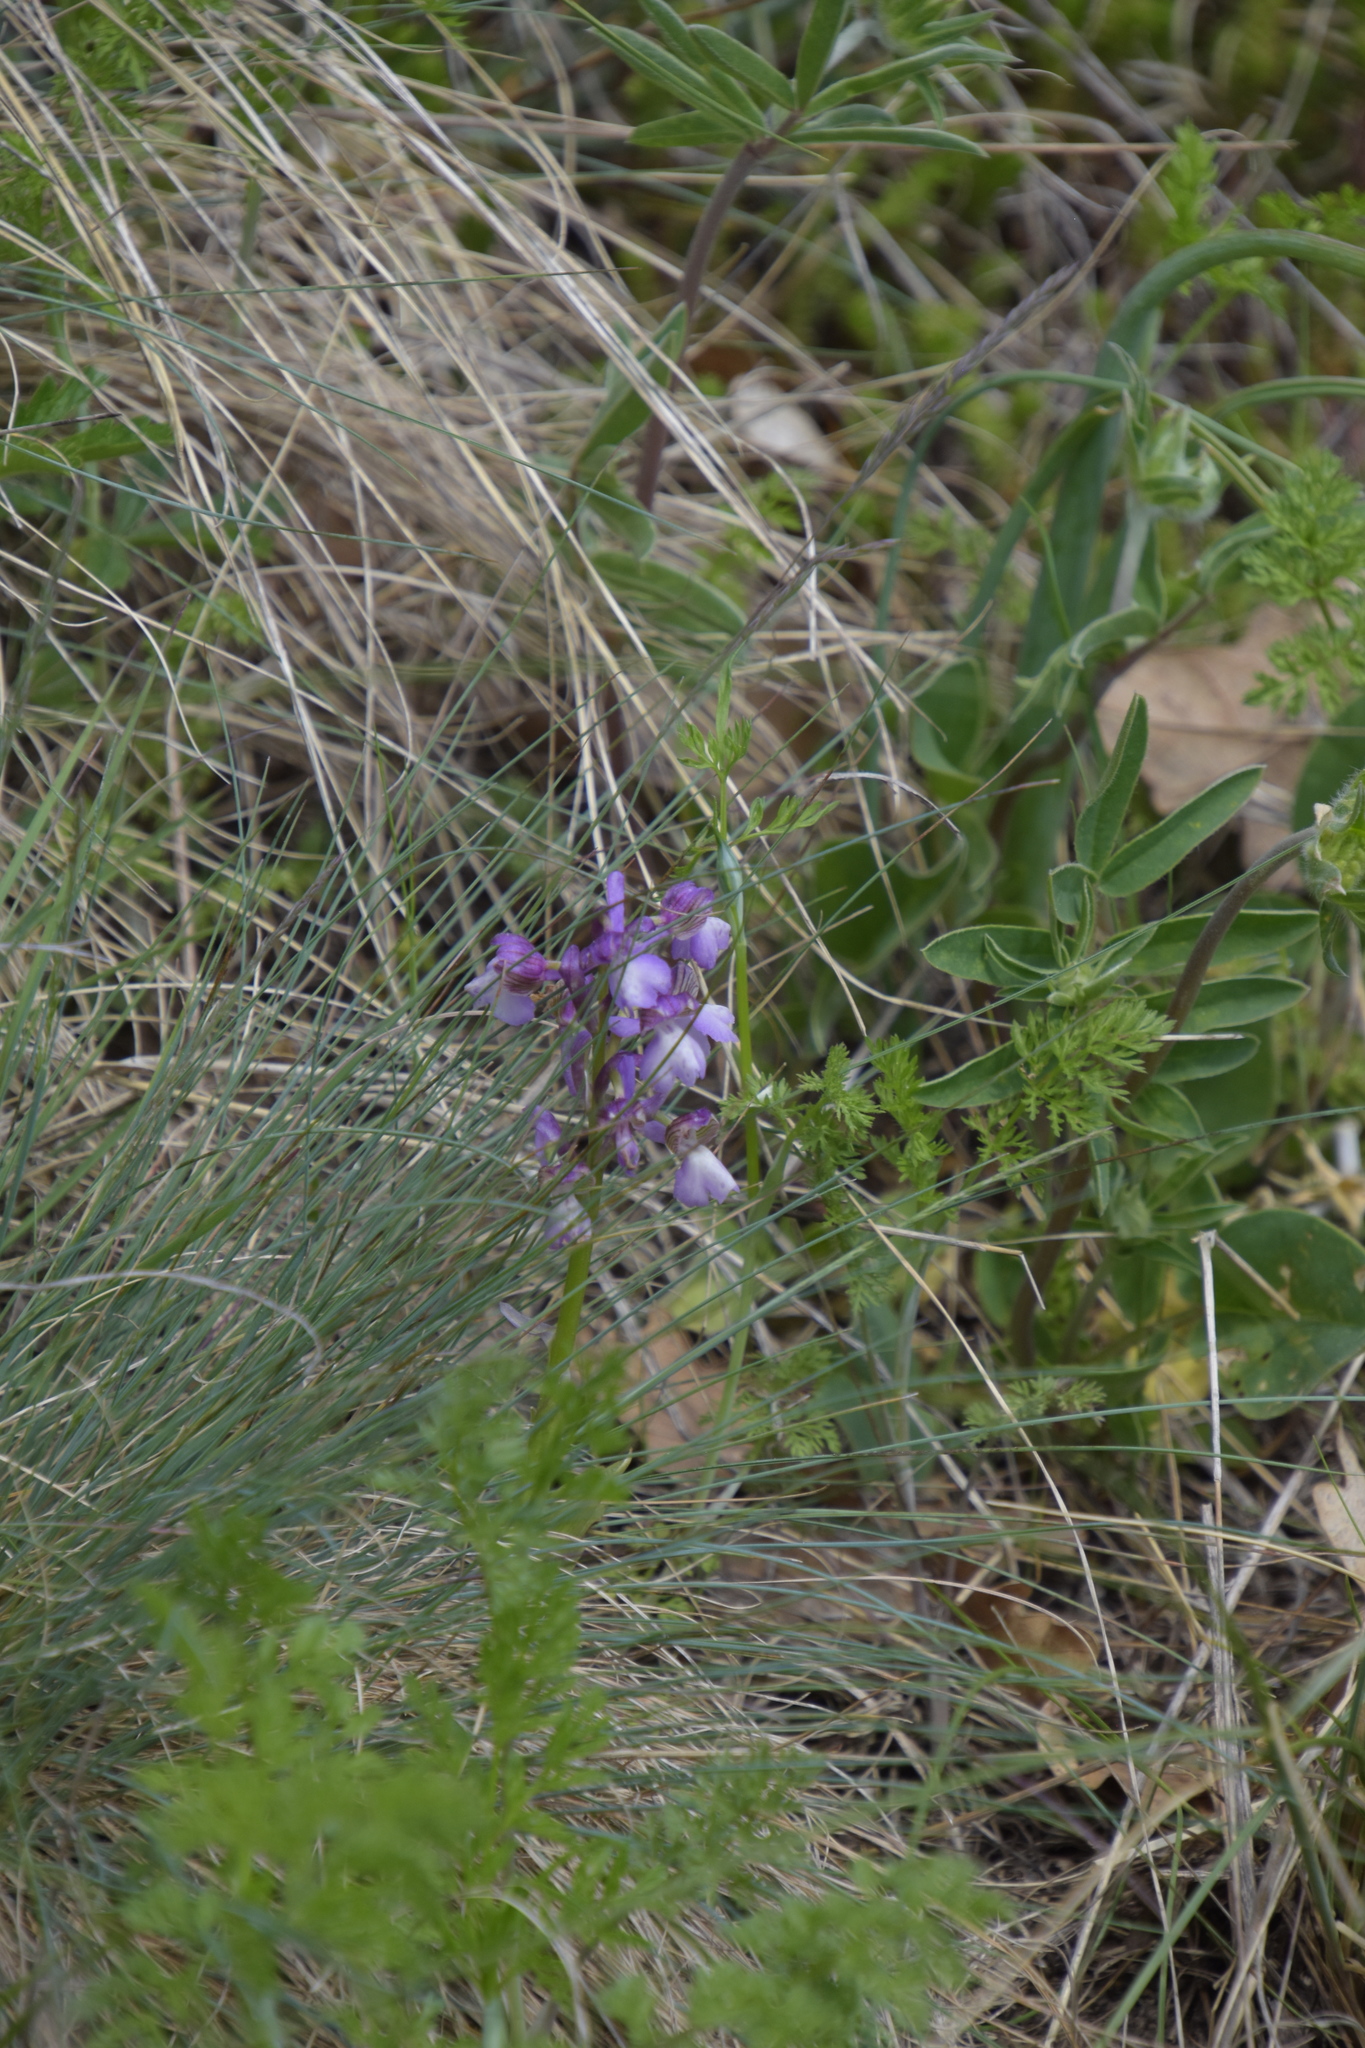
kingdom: Plantae
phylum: Tracheophyta
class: Liliopsida
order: Asparagales
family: Orchidaceae
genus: Anacamptis
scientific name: Anacamptis morio
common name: Green-winged orchid
